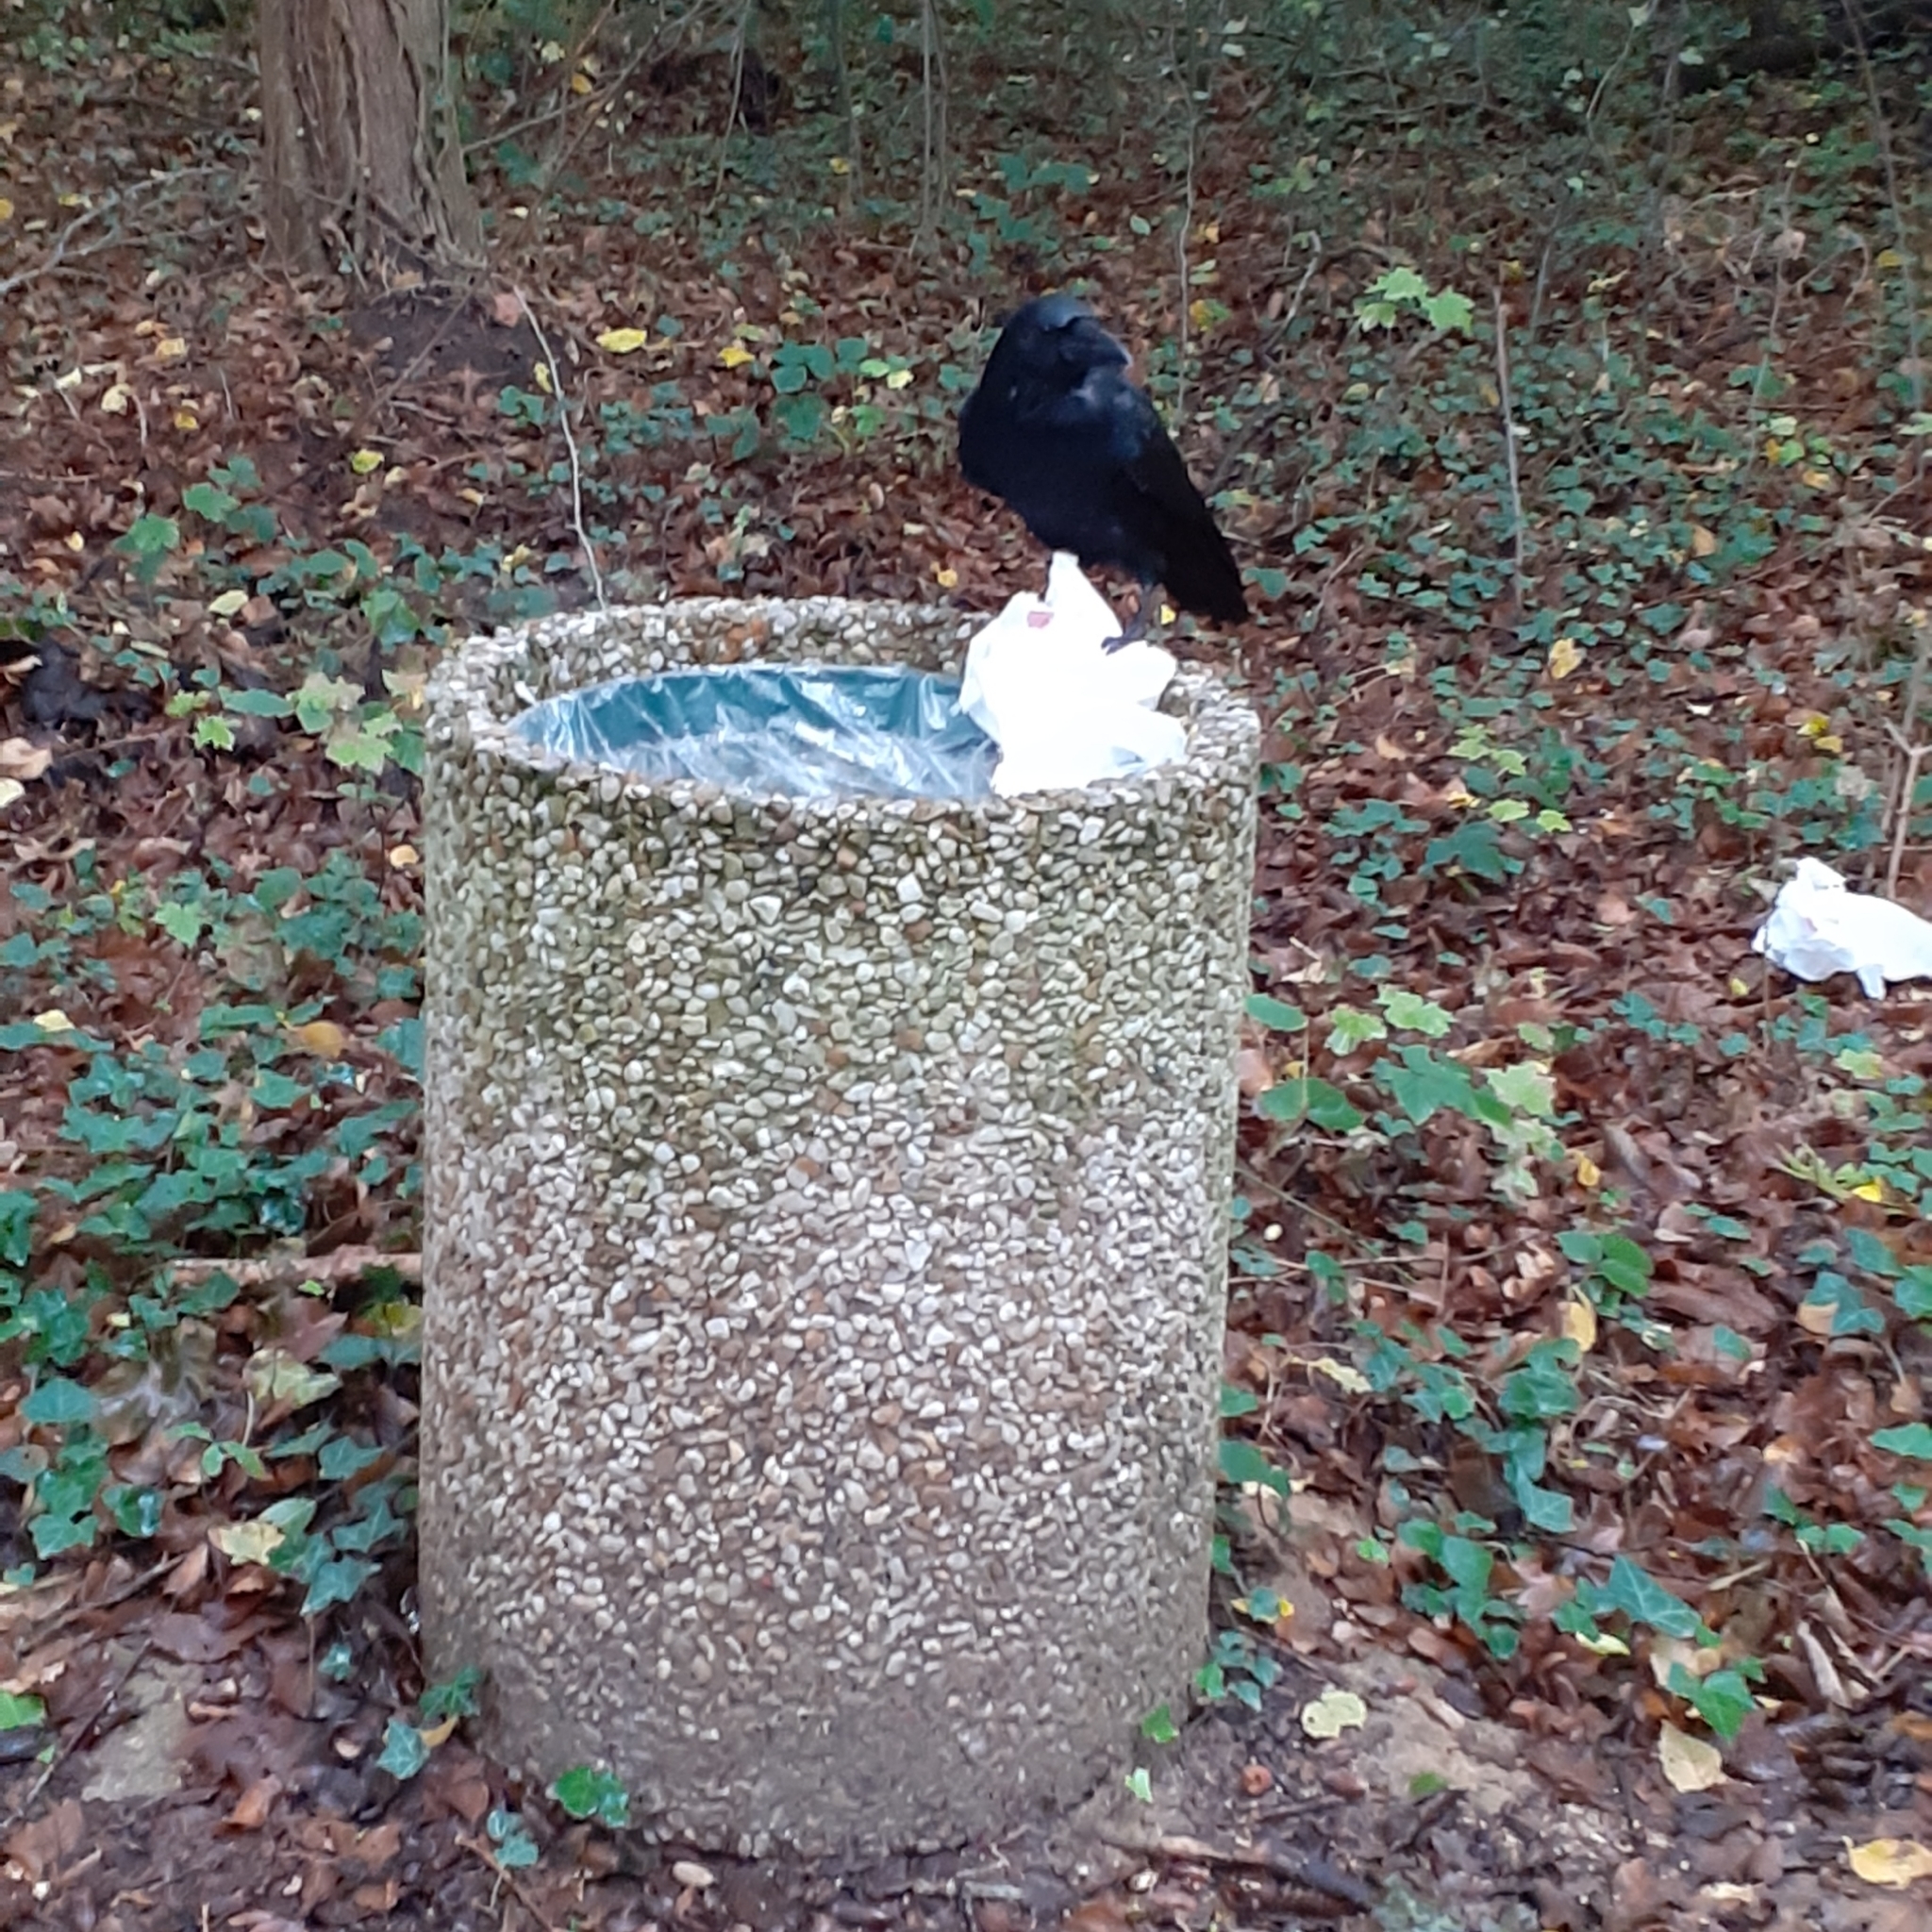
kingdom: Animalia
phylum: Chordata
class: Aves
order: Passeriformes
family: Corvidae
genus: Corvus
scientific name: Corvus corone
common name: Carrion crow
